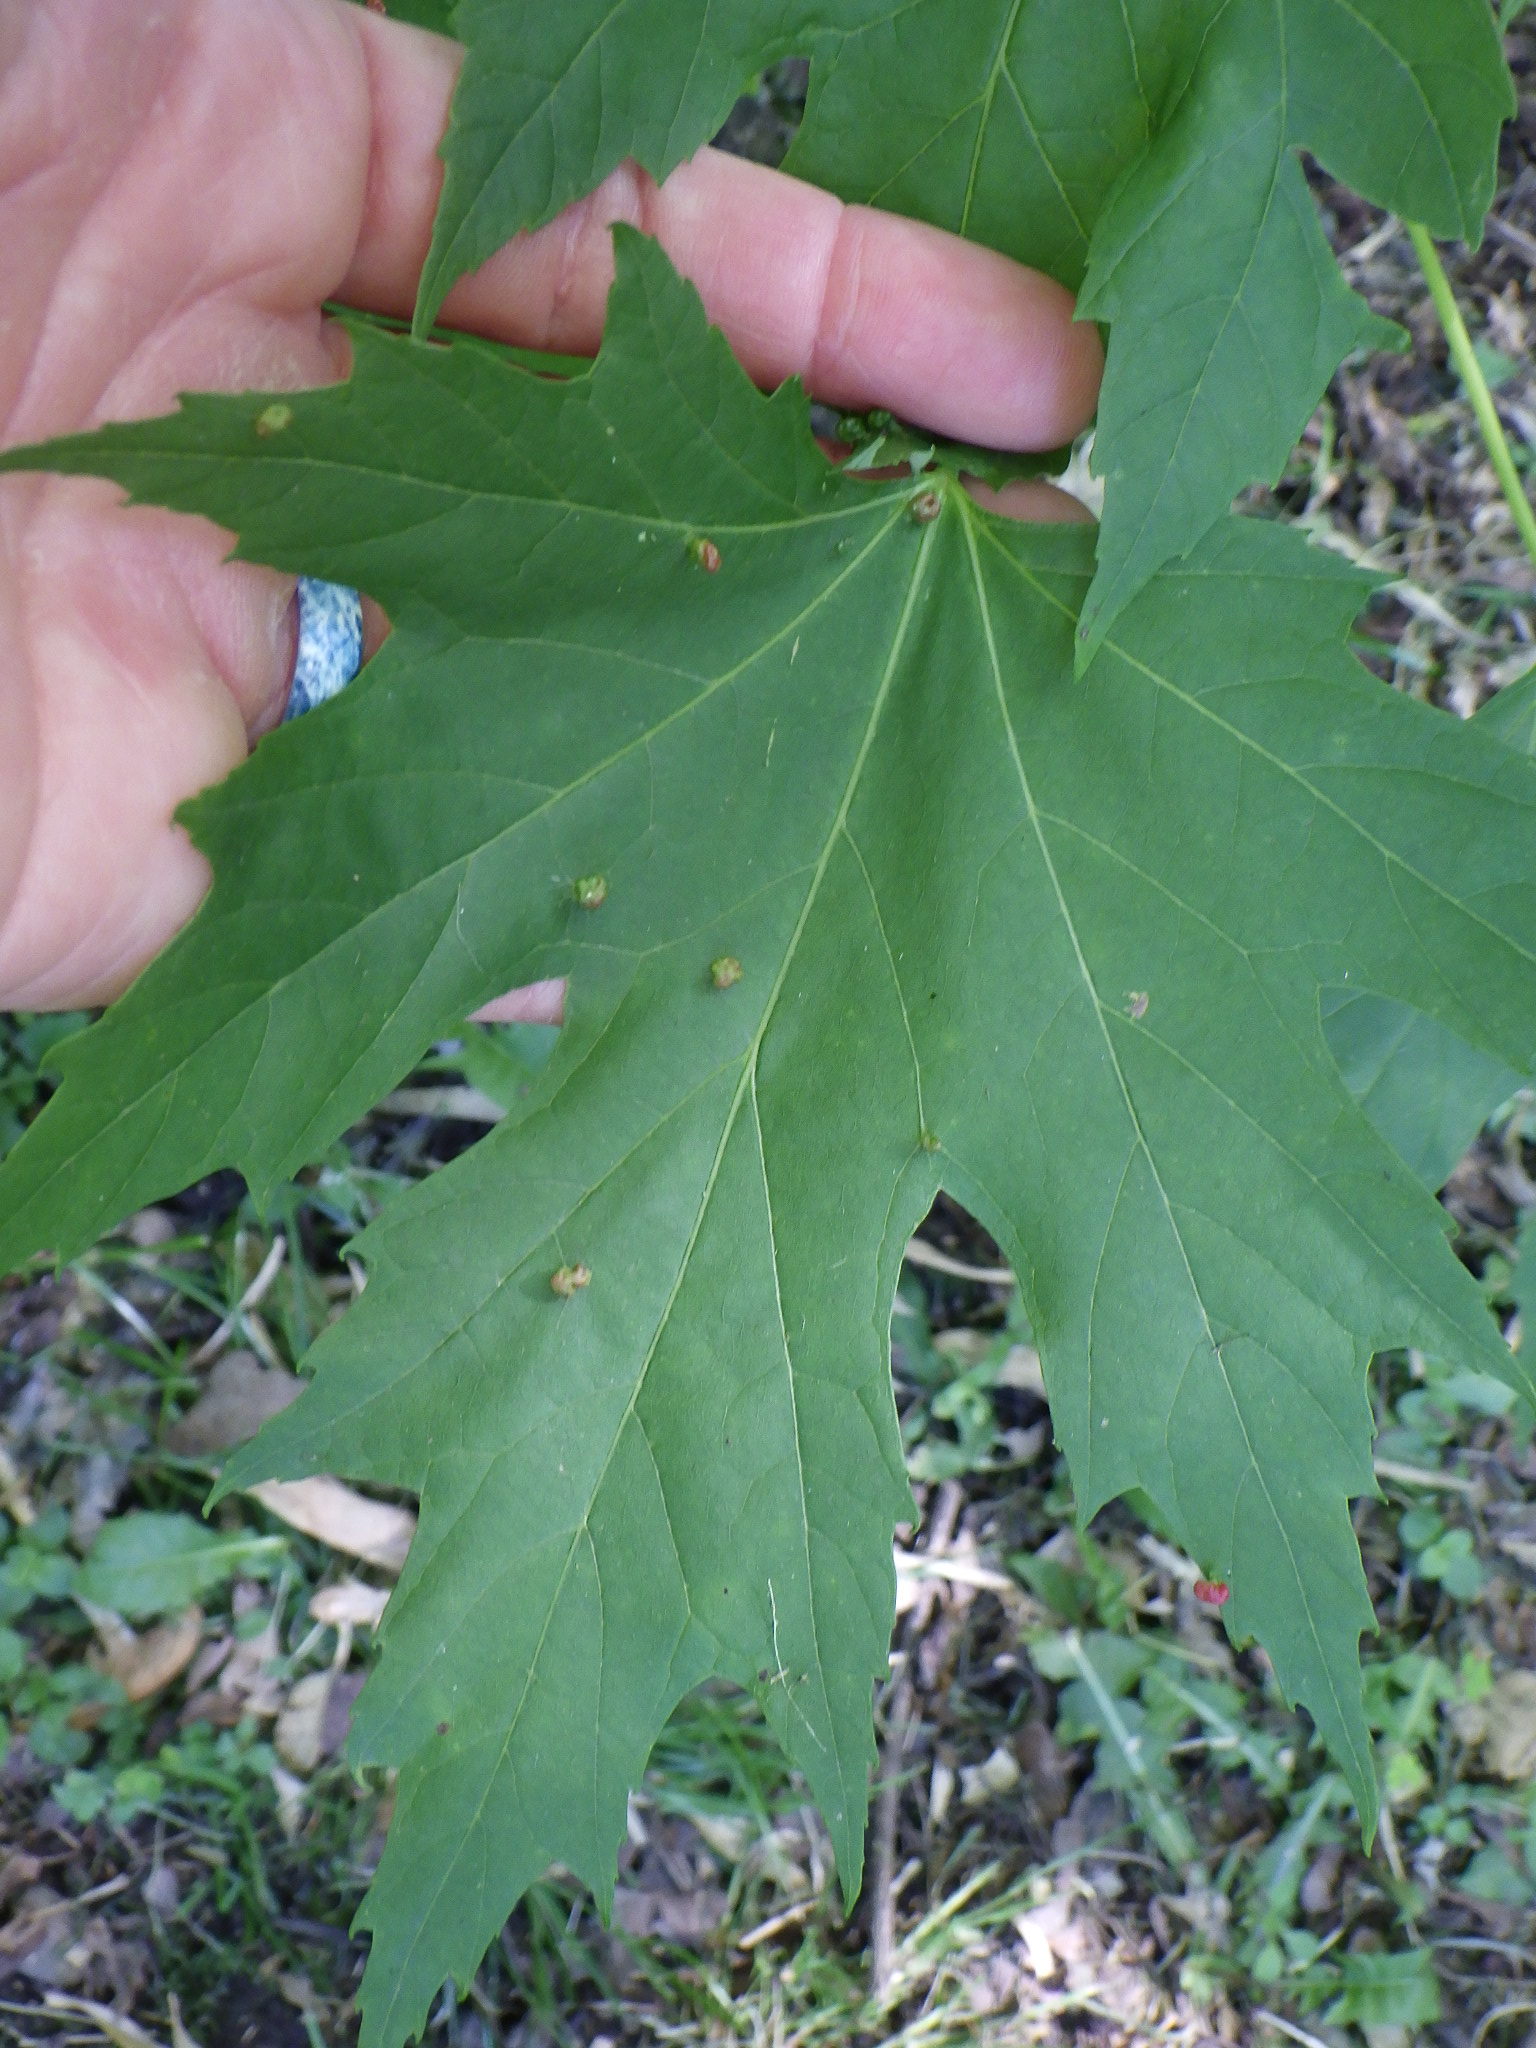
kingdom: Animalia
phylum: Arthropoda
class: Arachnida
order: Trombidiformes
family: Eriophyidae
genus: Vasates
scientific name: Vasates quadripedes
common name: Maple bladder gall mite
